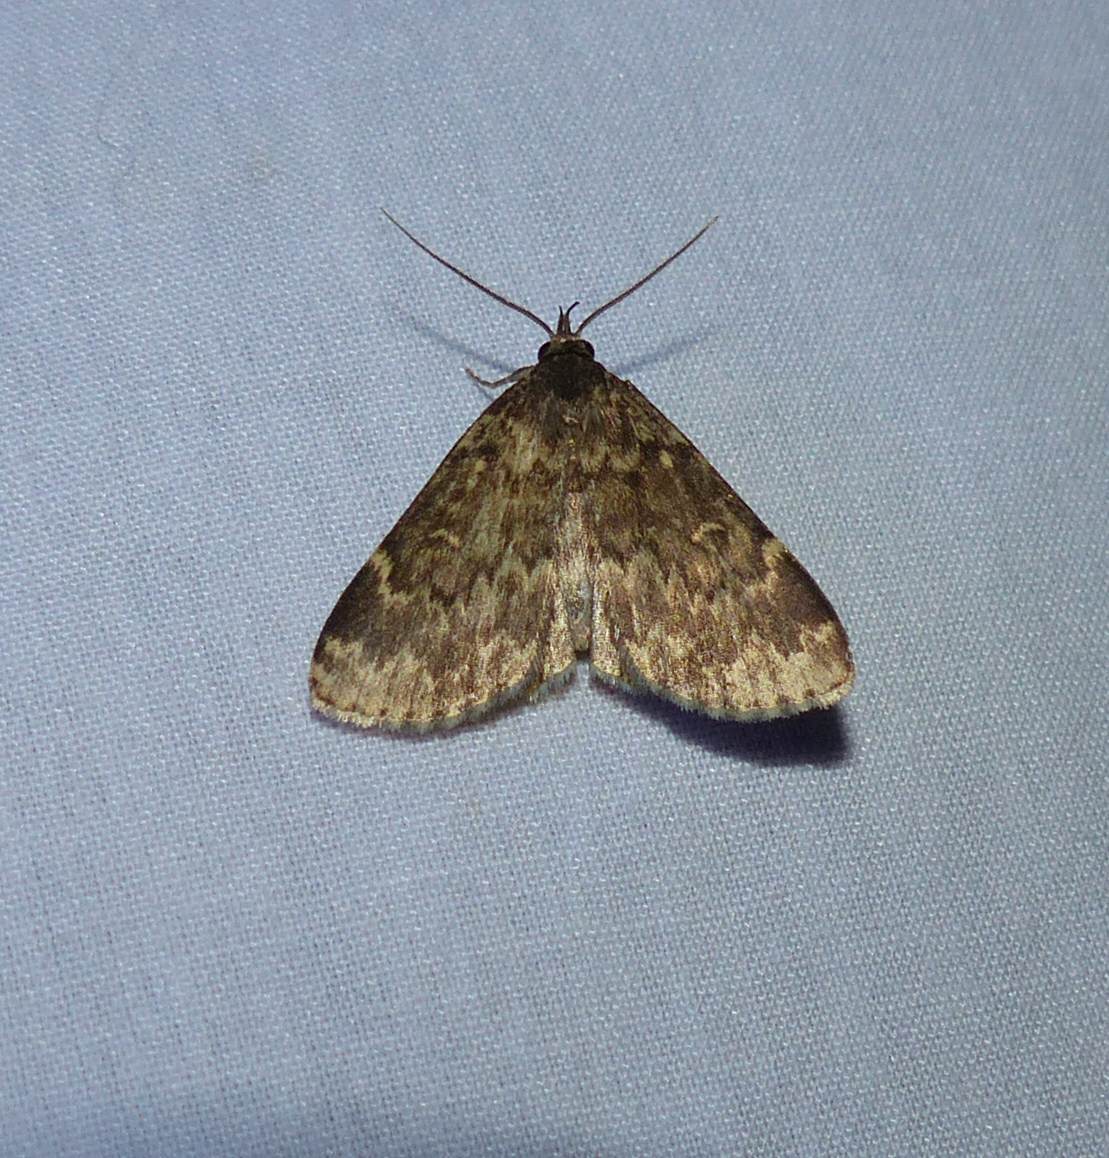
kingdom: Animalia
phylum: Arthropoda
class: Insecta
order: Lepidoptera
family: Erebidae
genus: Idia
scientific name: Idia lubricalis
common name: Twin-striped tabby
